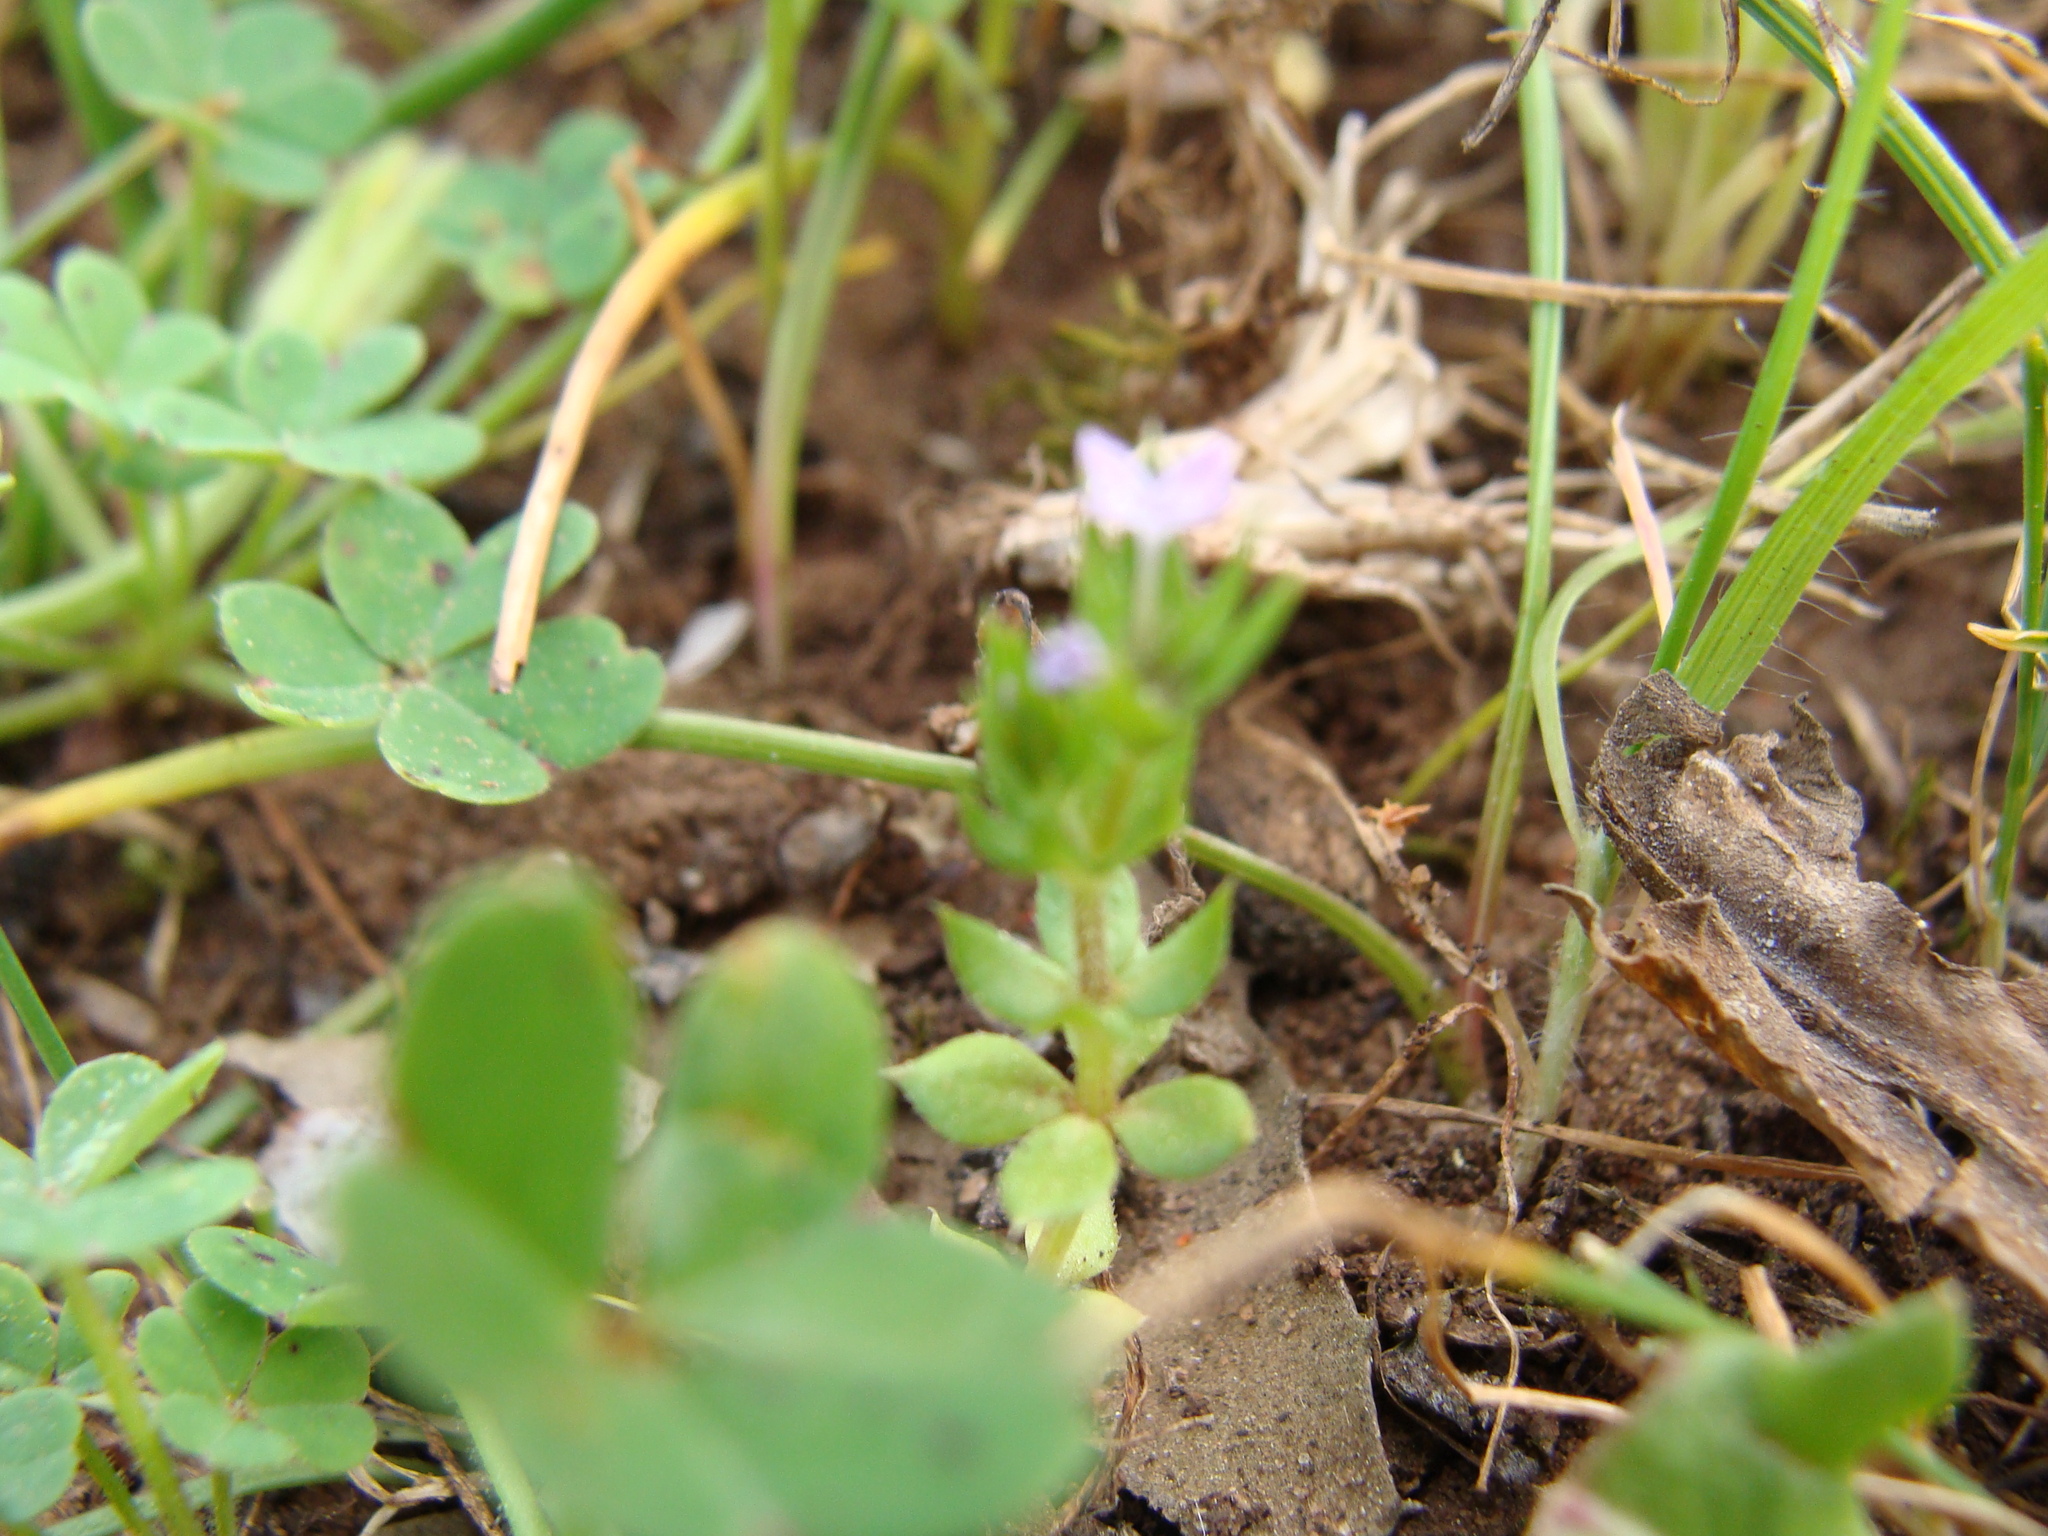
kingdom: Plantae
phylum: Tracheophyta
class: Magnoliopsida
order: Gentianales
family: Rubiaceae
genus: Sherardia
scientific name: Sherardia arvensis
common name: Field madder
